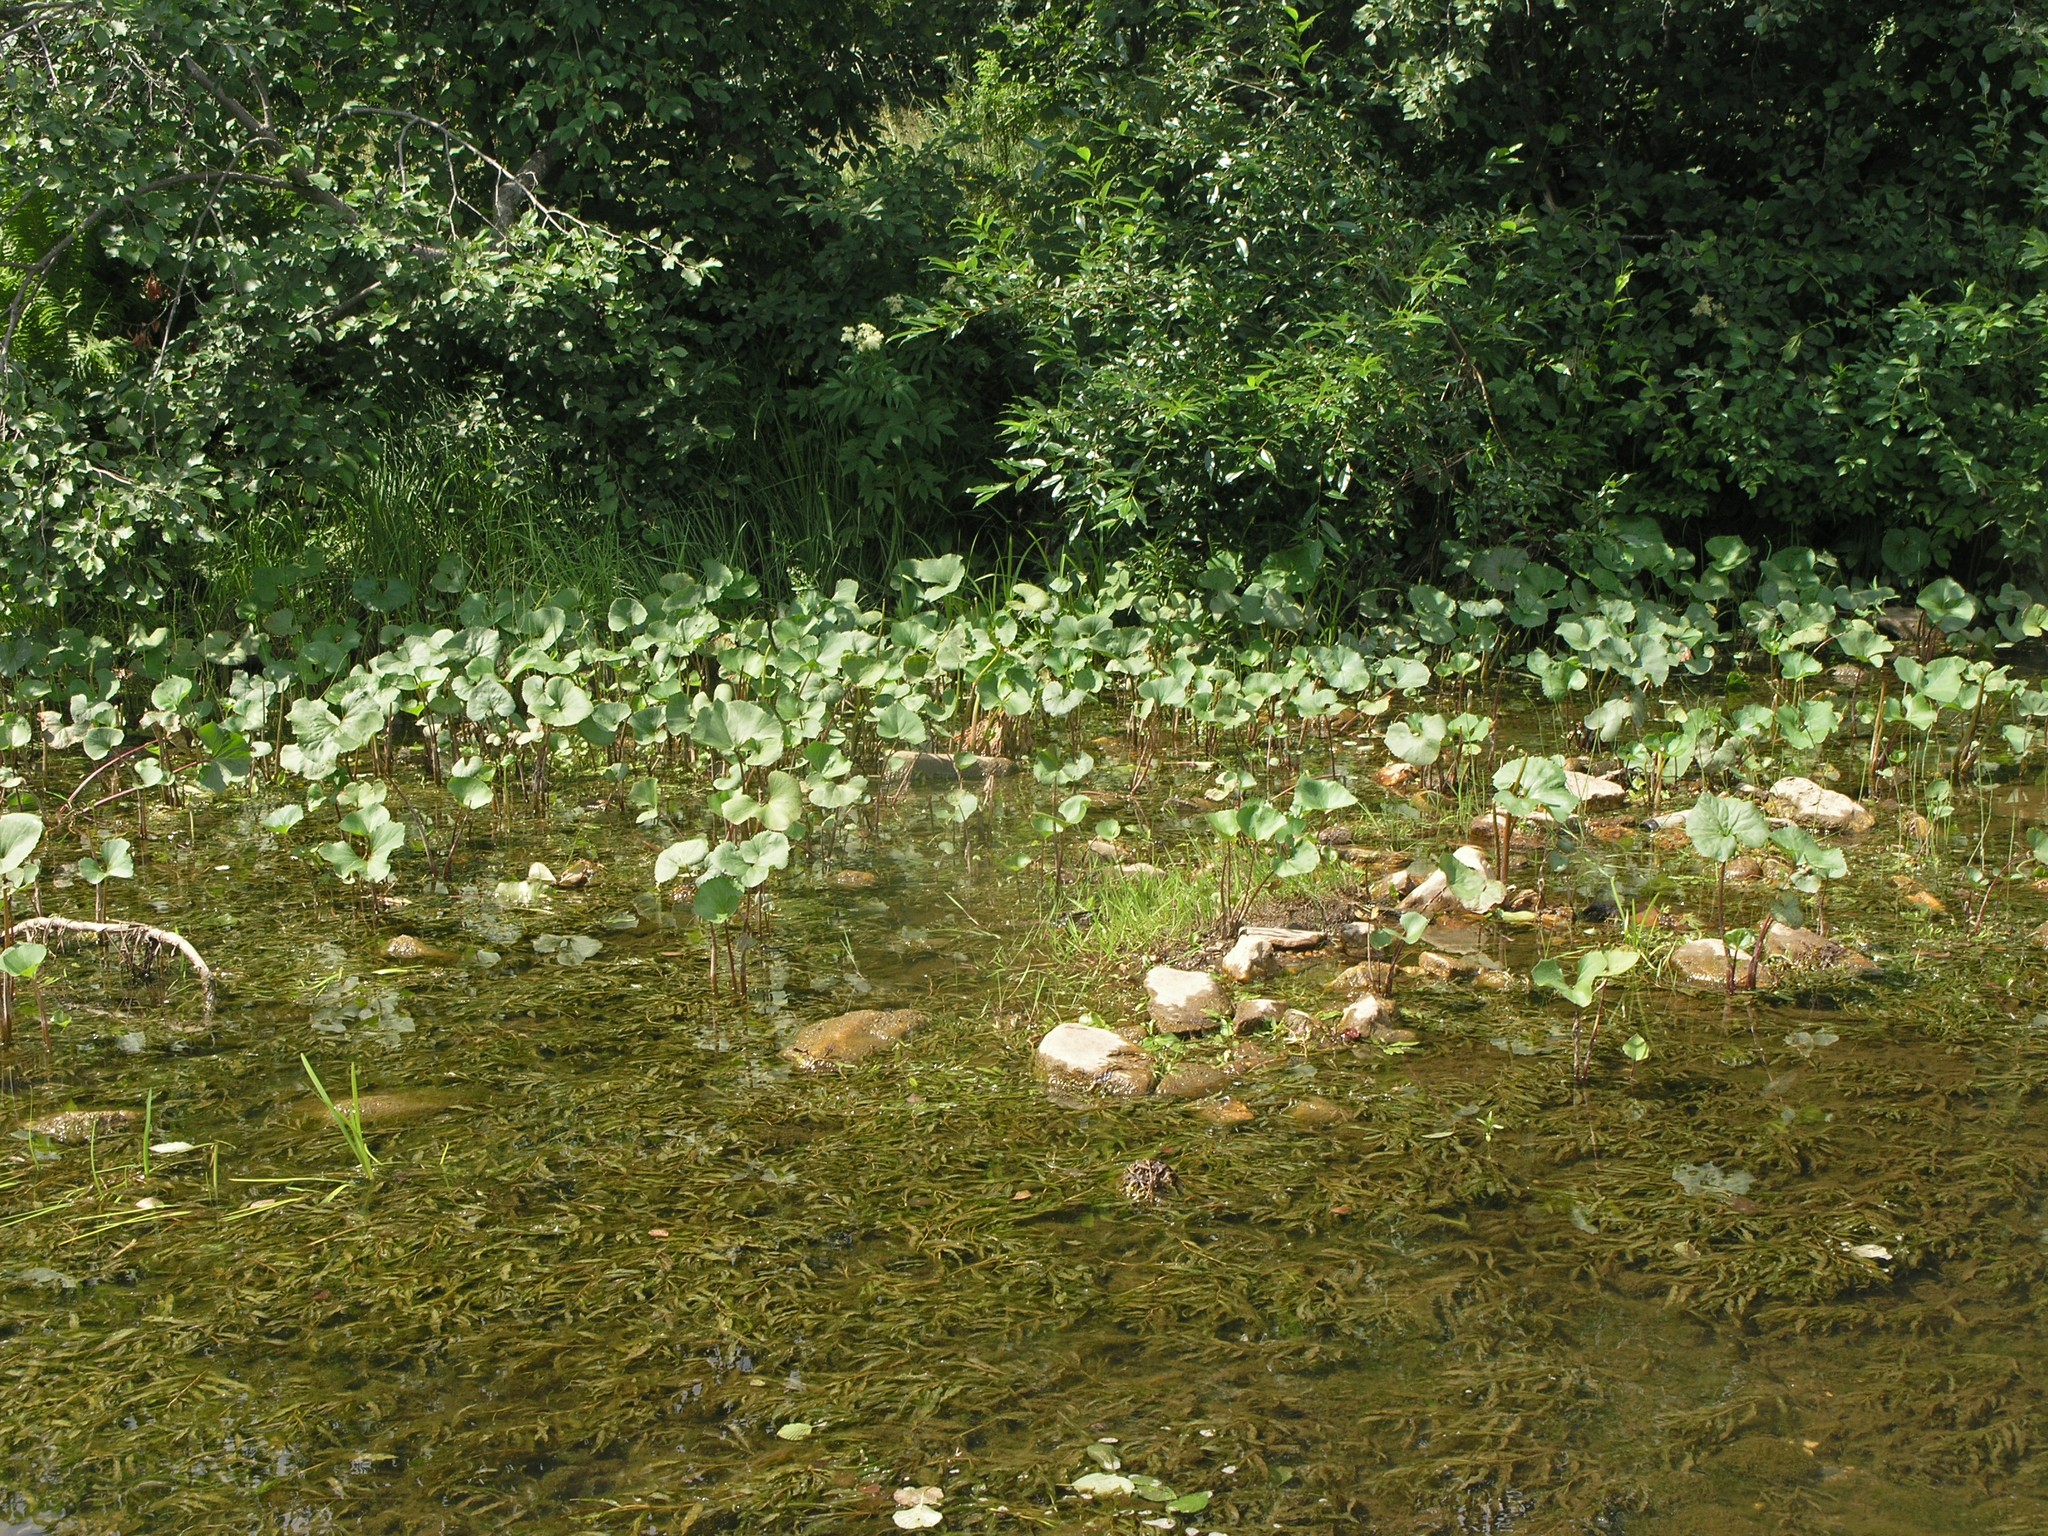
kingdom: Plantae
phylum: Tracheophyta
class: Magnoliopsida
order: Asterales
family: Asteraceae
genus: Petasites
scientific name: Petasites radiatus
